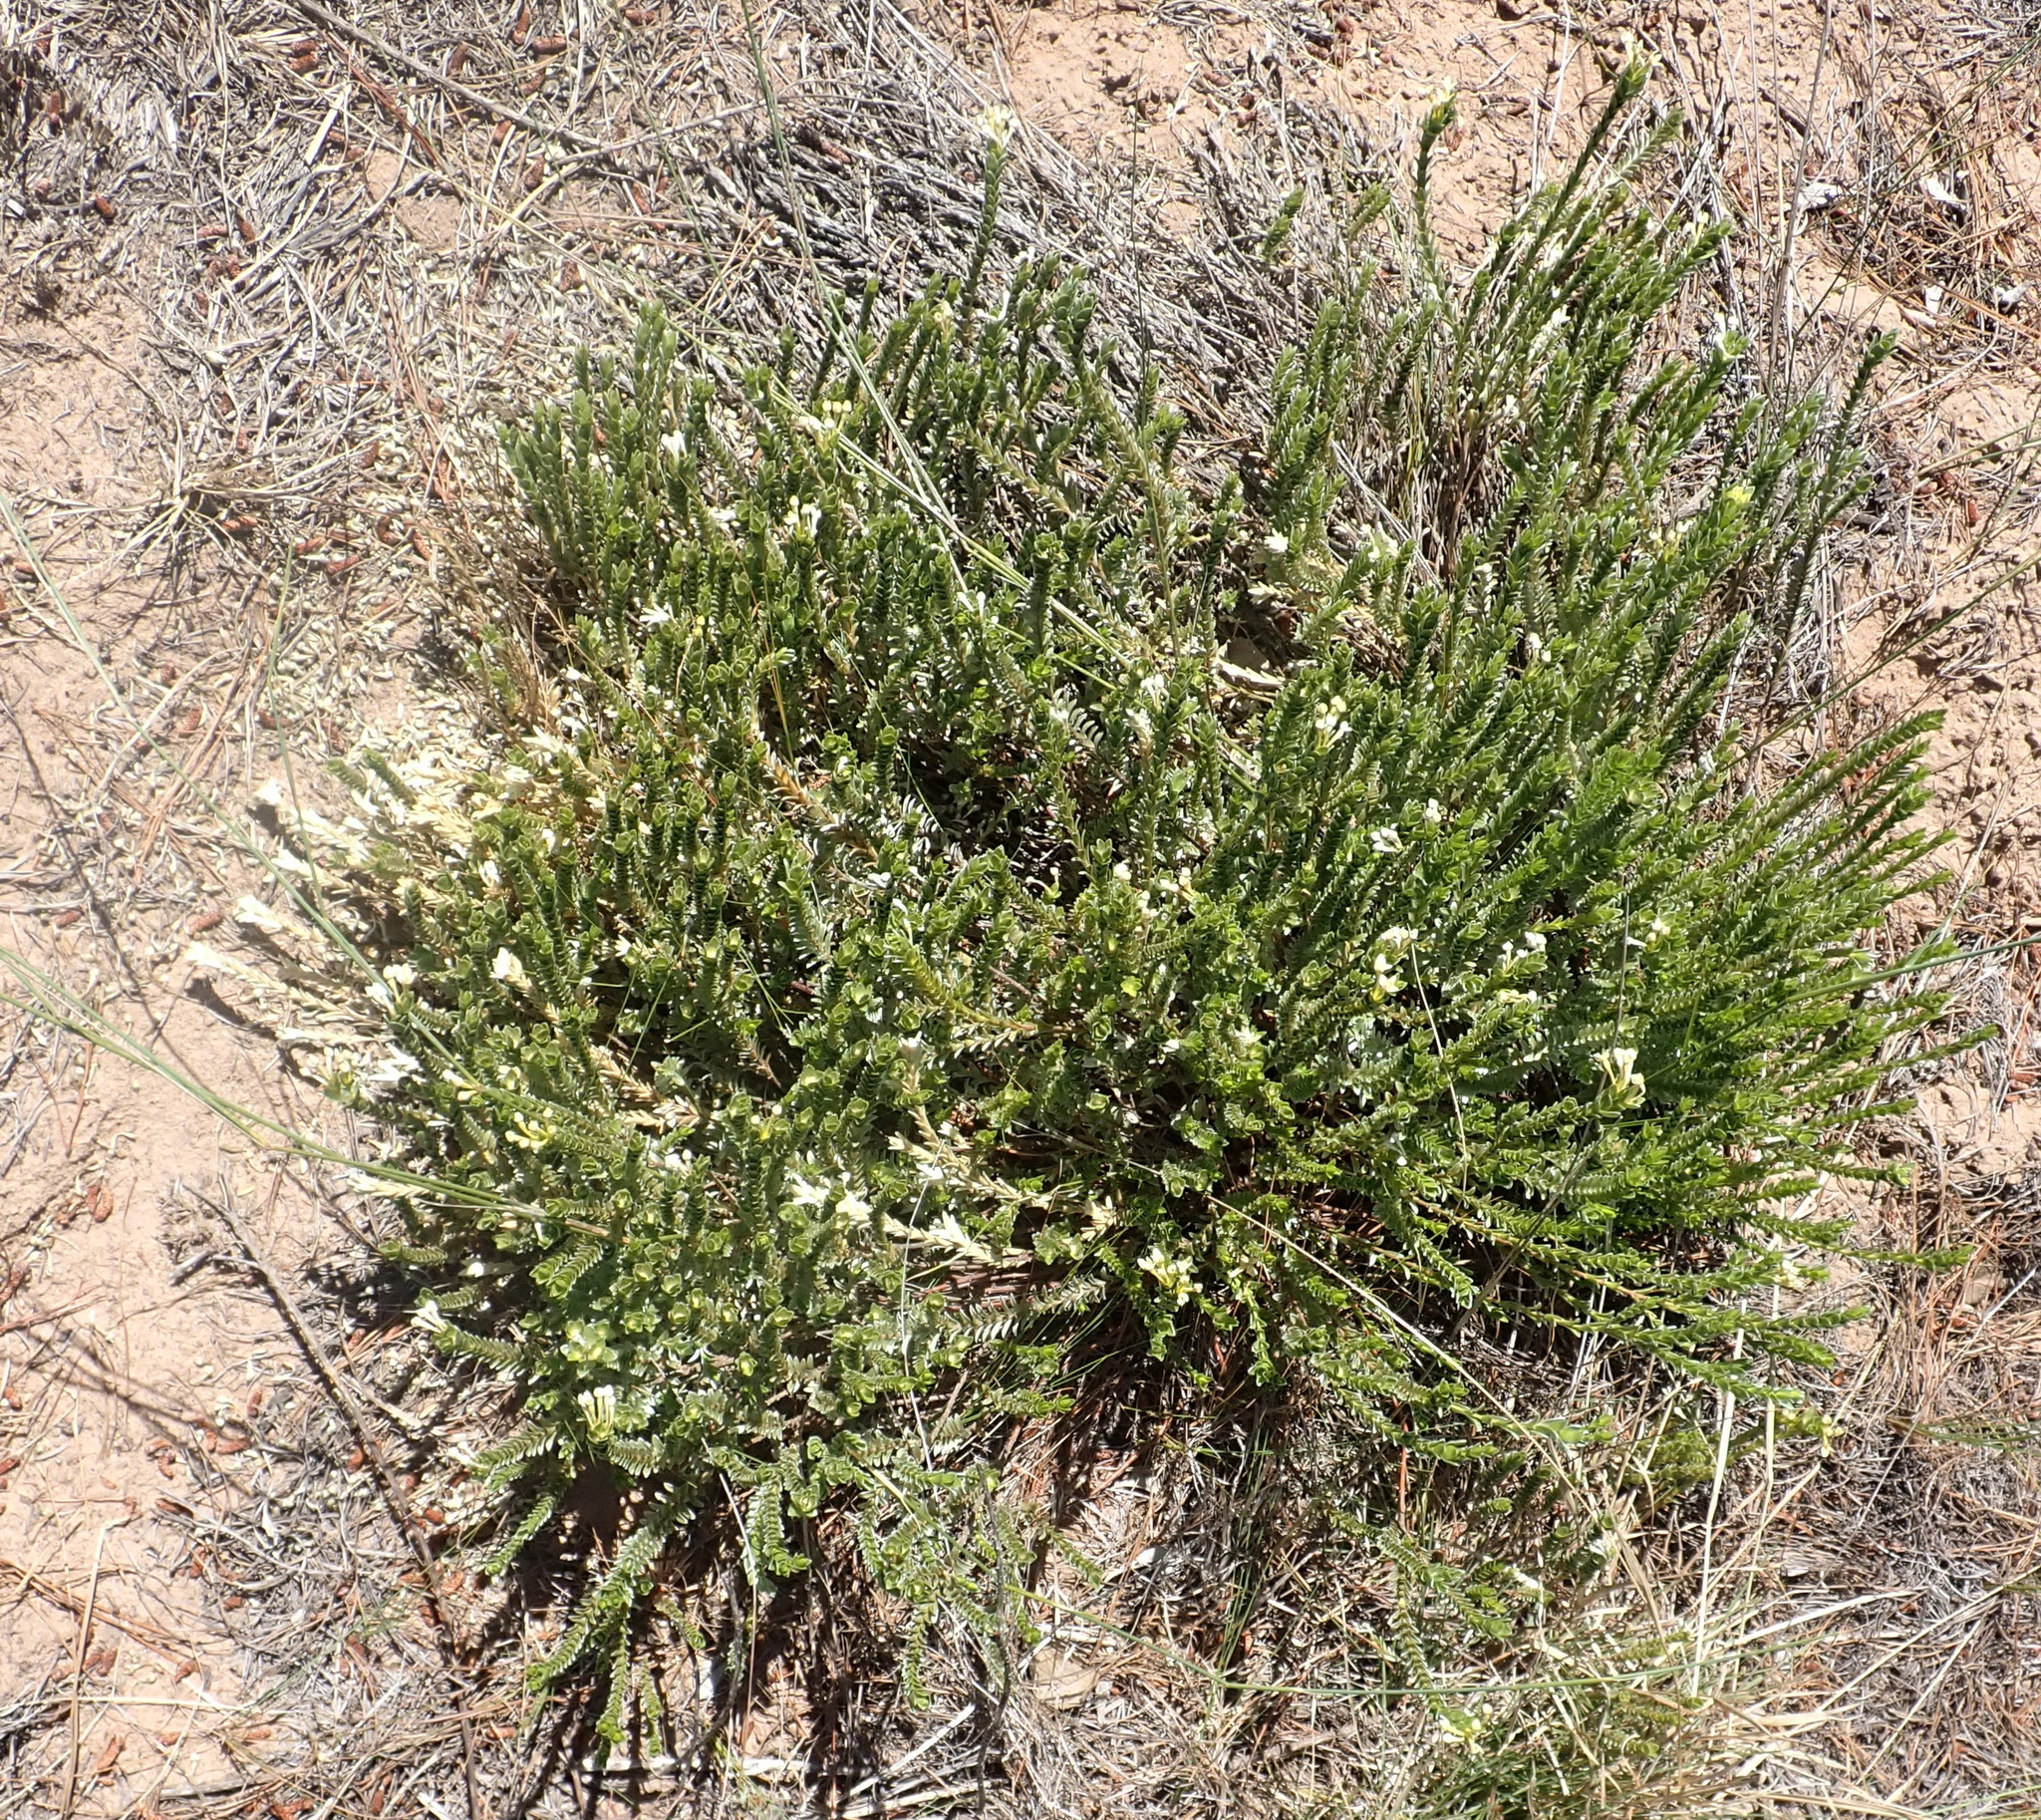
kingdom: Plantae
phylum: Tracheophyta
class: Magnoliopsida
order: Malvales
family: Thymelaeaceae
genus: Gnidia
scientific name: Gnidia chrysophylla
